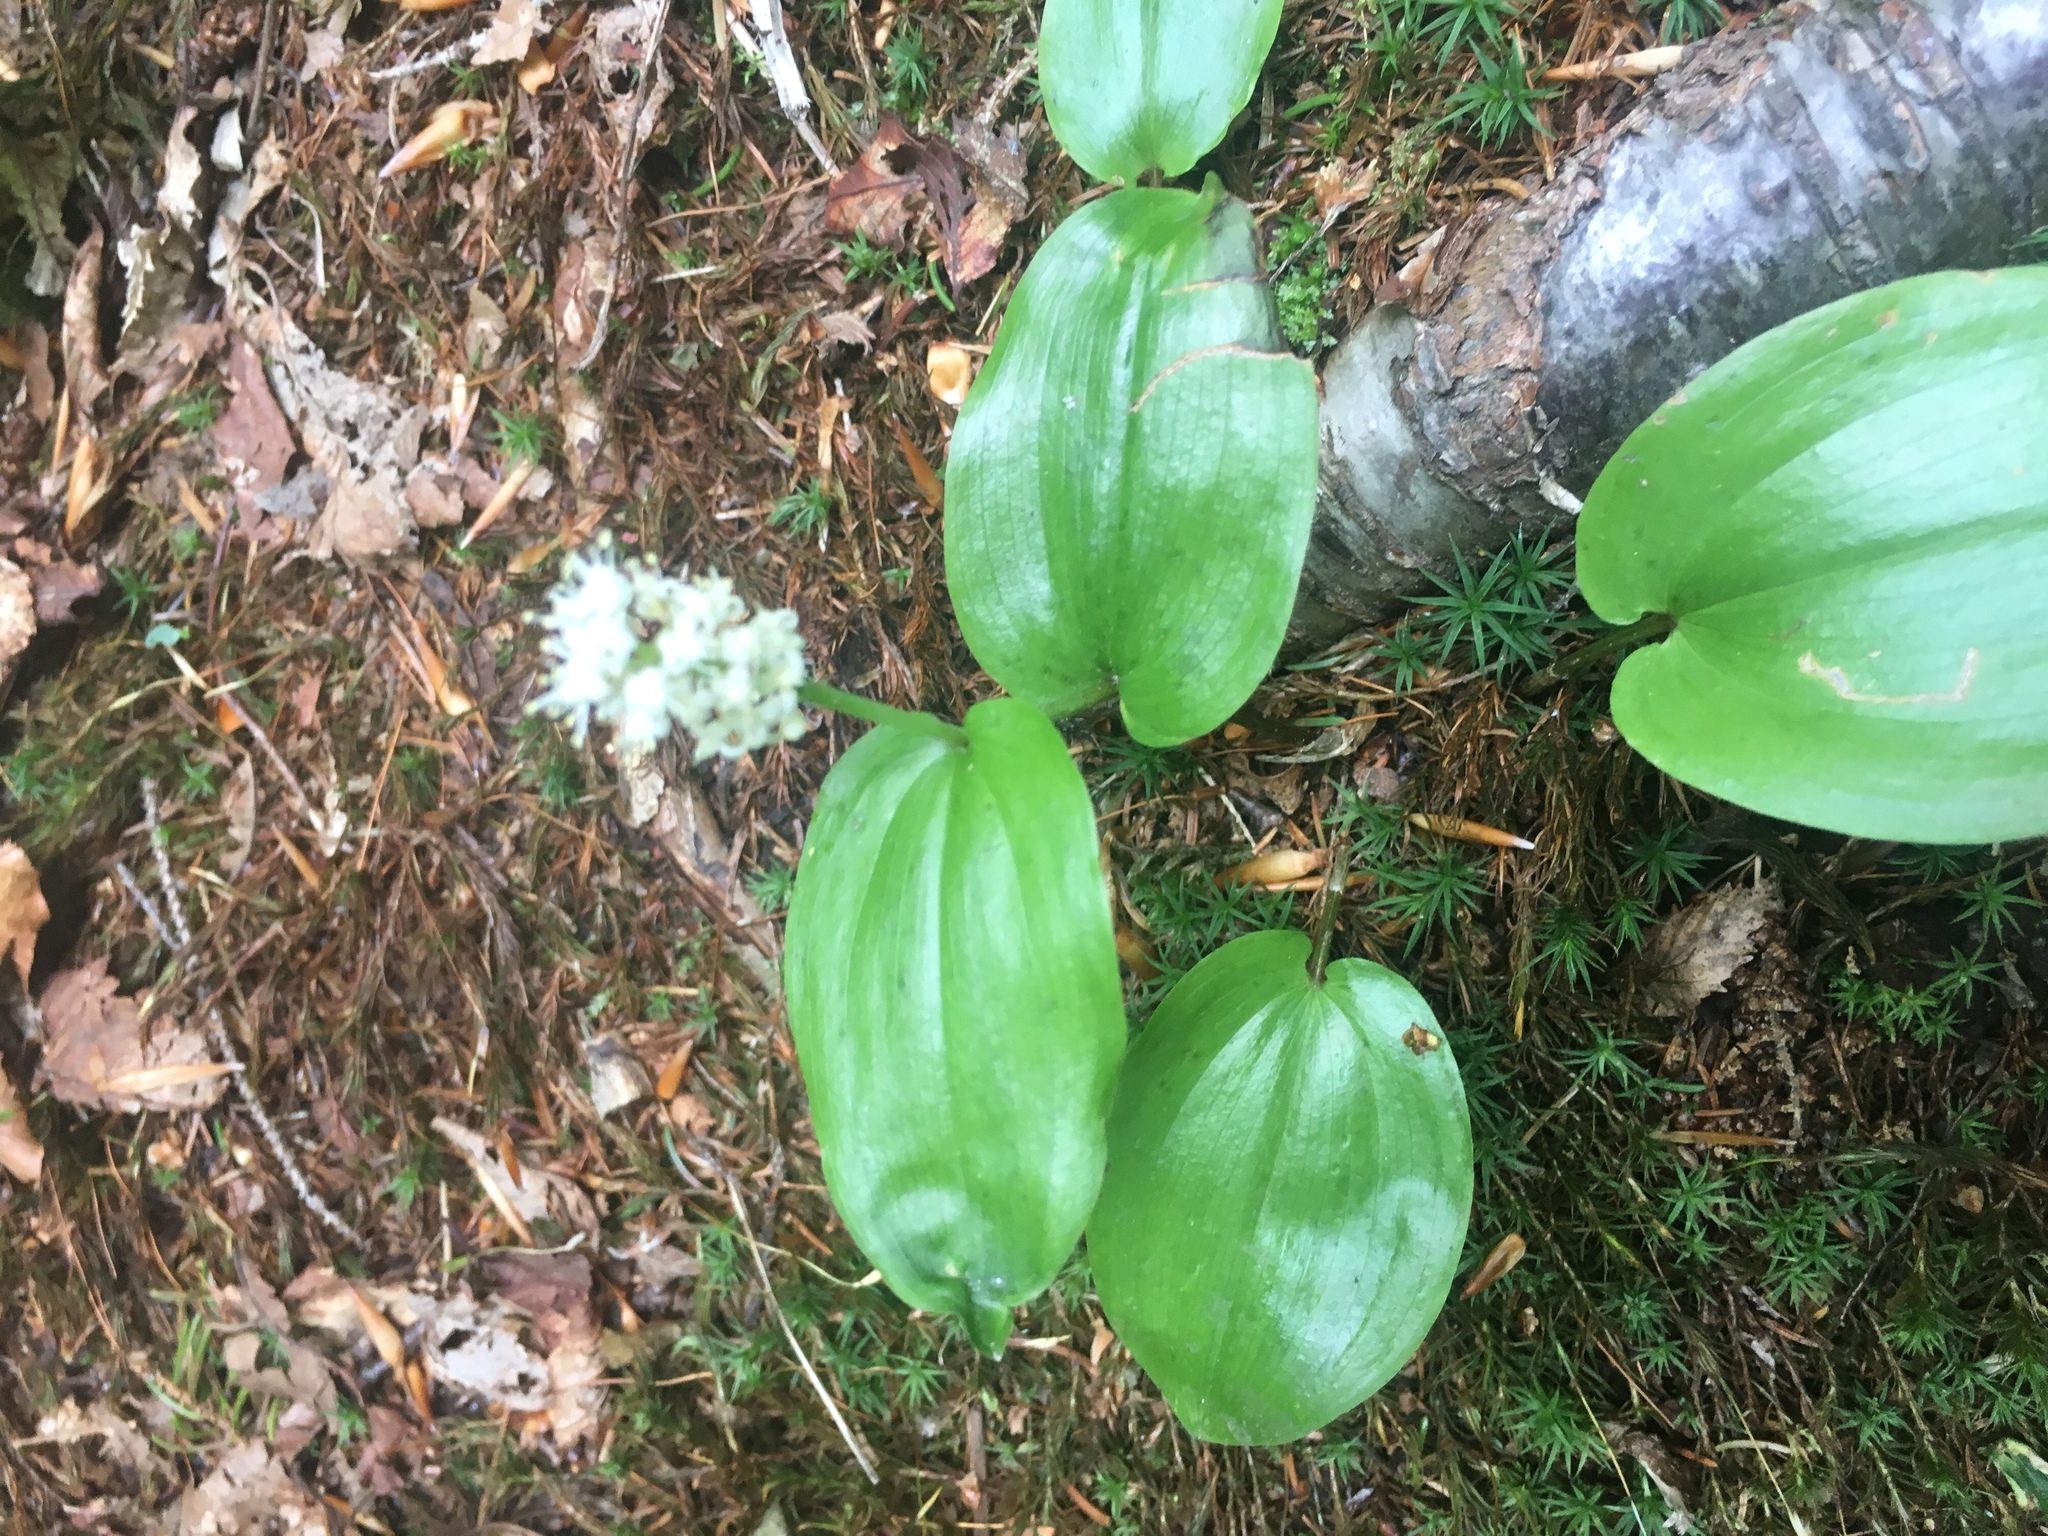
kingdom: Plantae
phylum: Tracheophyta
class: Liliopsida
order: Asparagales
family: Asparagaceae
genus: Maianthemum
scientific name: Maianthemum canadense
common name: False lily-of-the-valley
